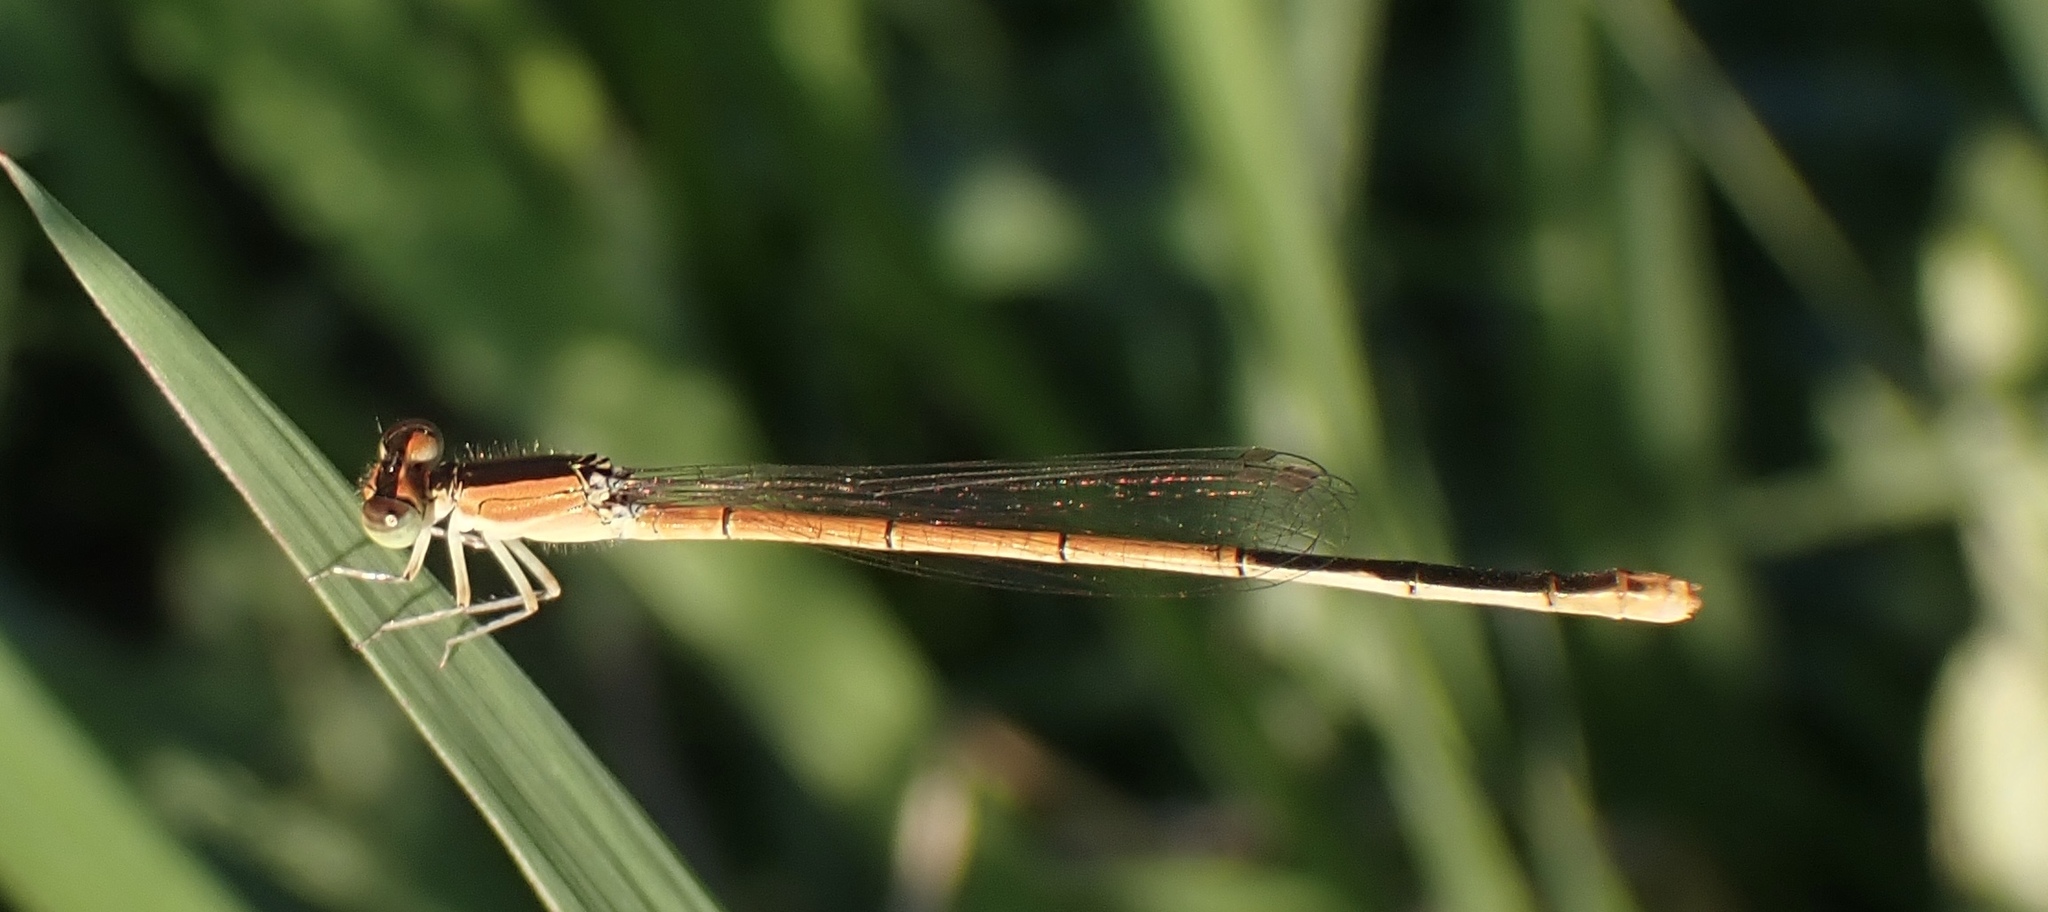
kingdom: Animalia
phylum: Arthropoda
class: Insecta
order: Odonata
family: Coenagrionidae
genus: Ischnura
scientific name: Ischnura hastata
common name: Citrine forktail
